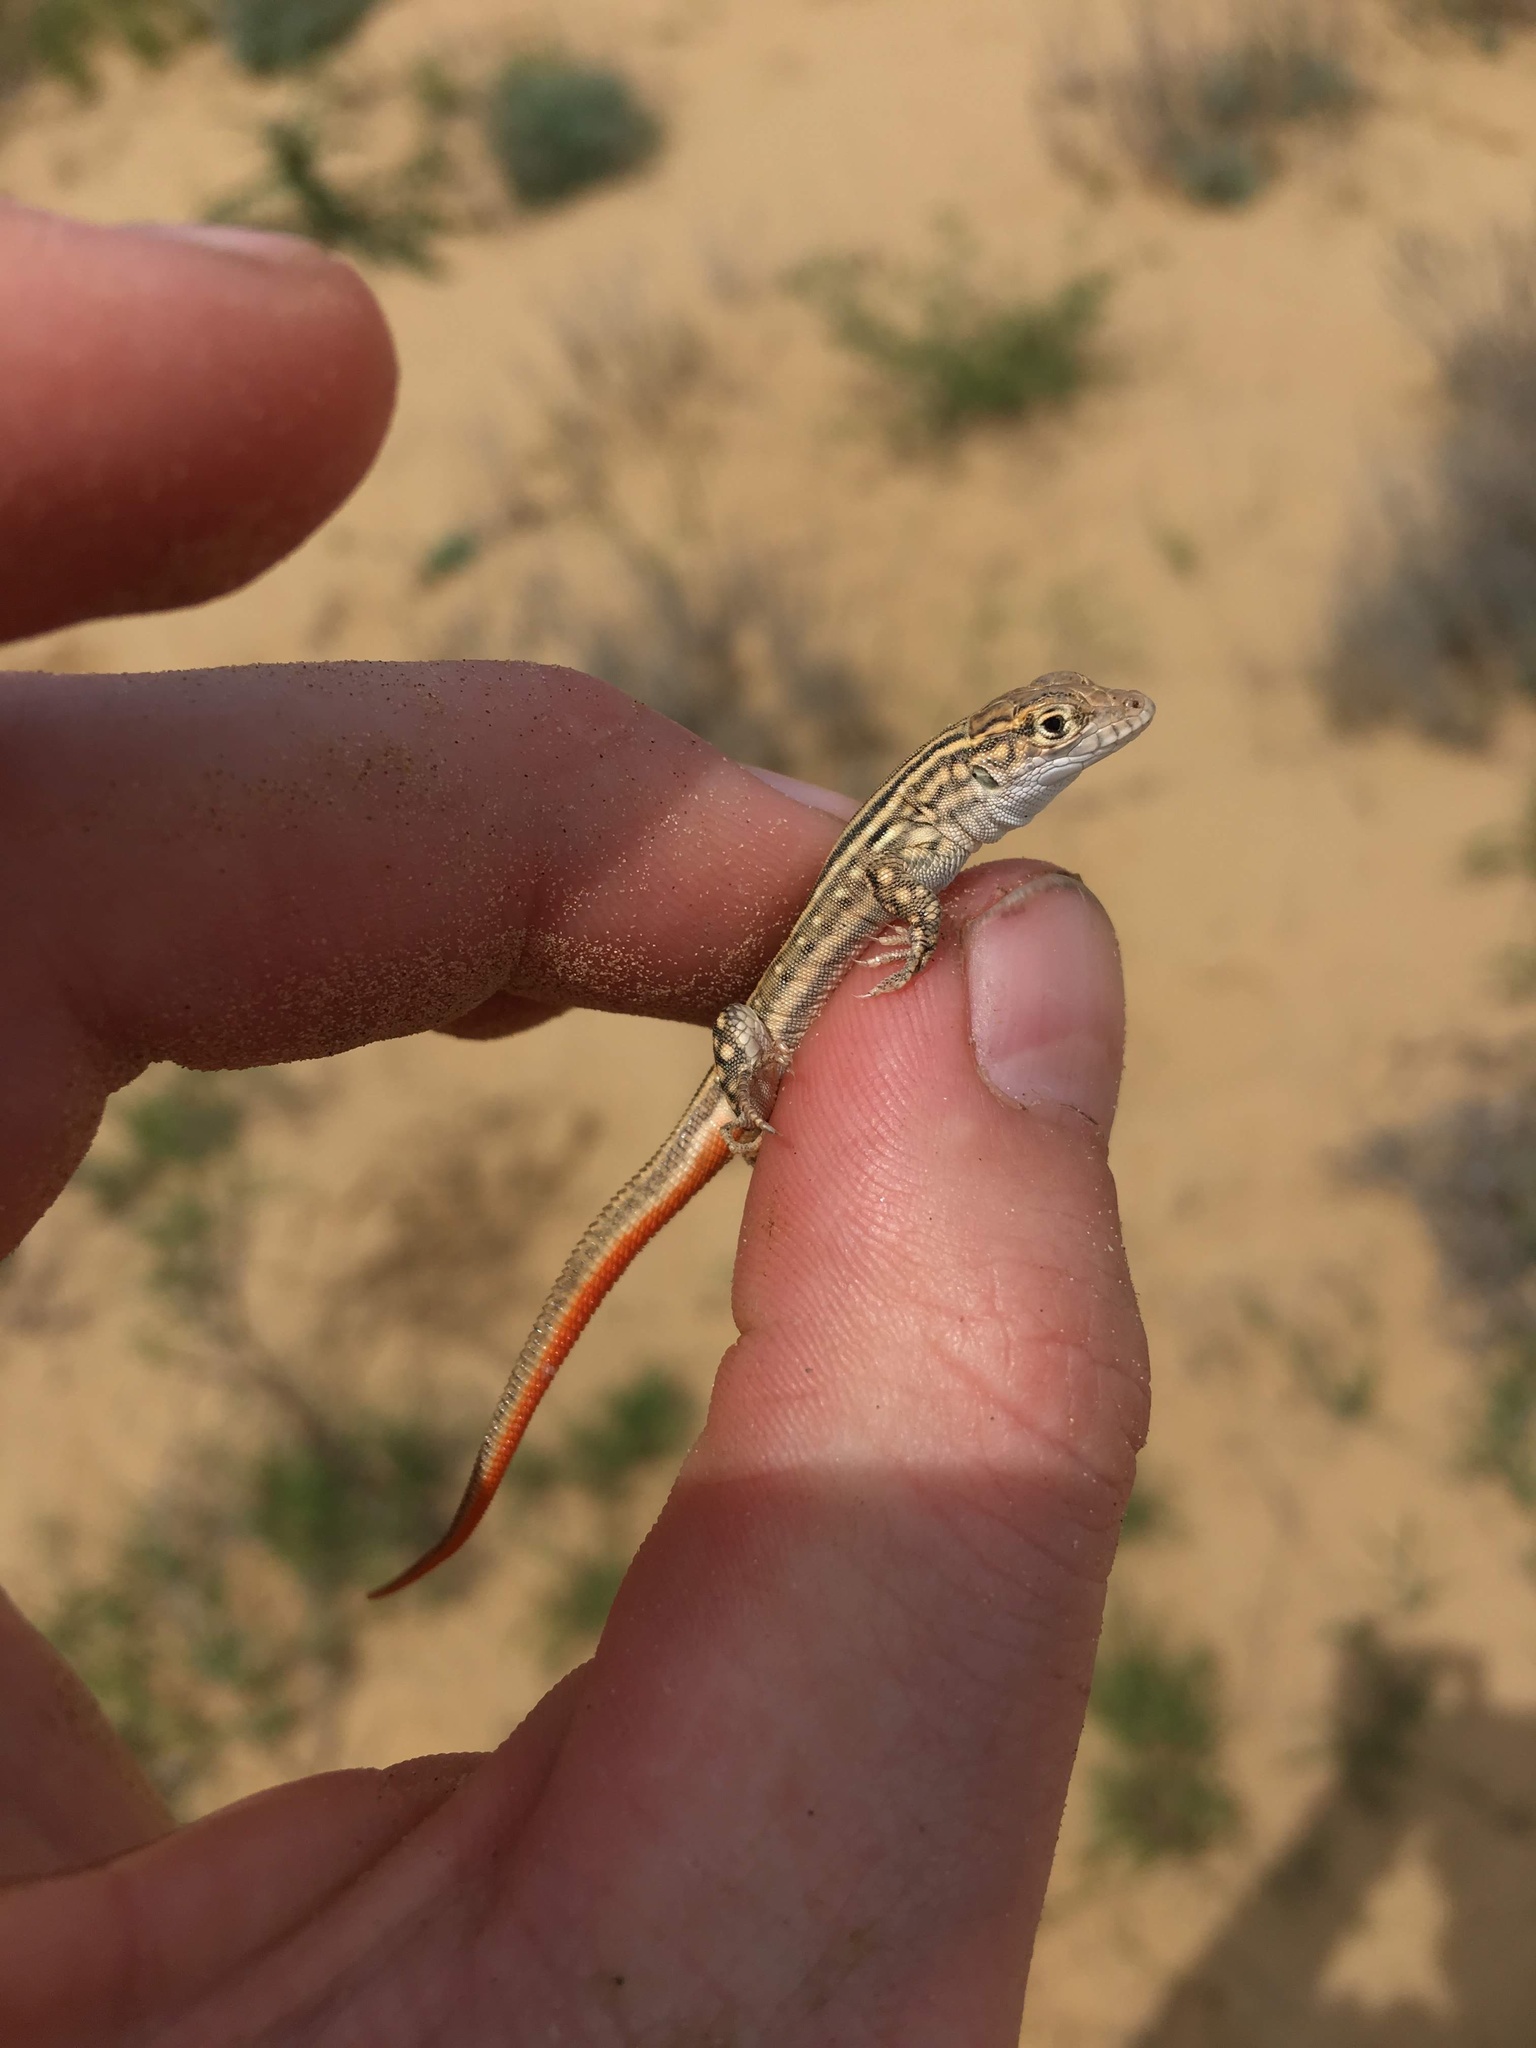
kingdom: Animalia
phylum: Chordata
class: Squamata
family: Lacertidae
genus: Eremias
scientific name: Eremias velox
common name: Central asian racerunner
